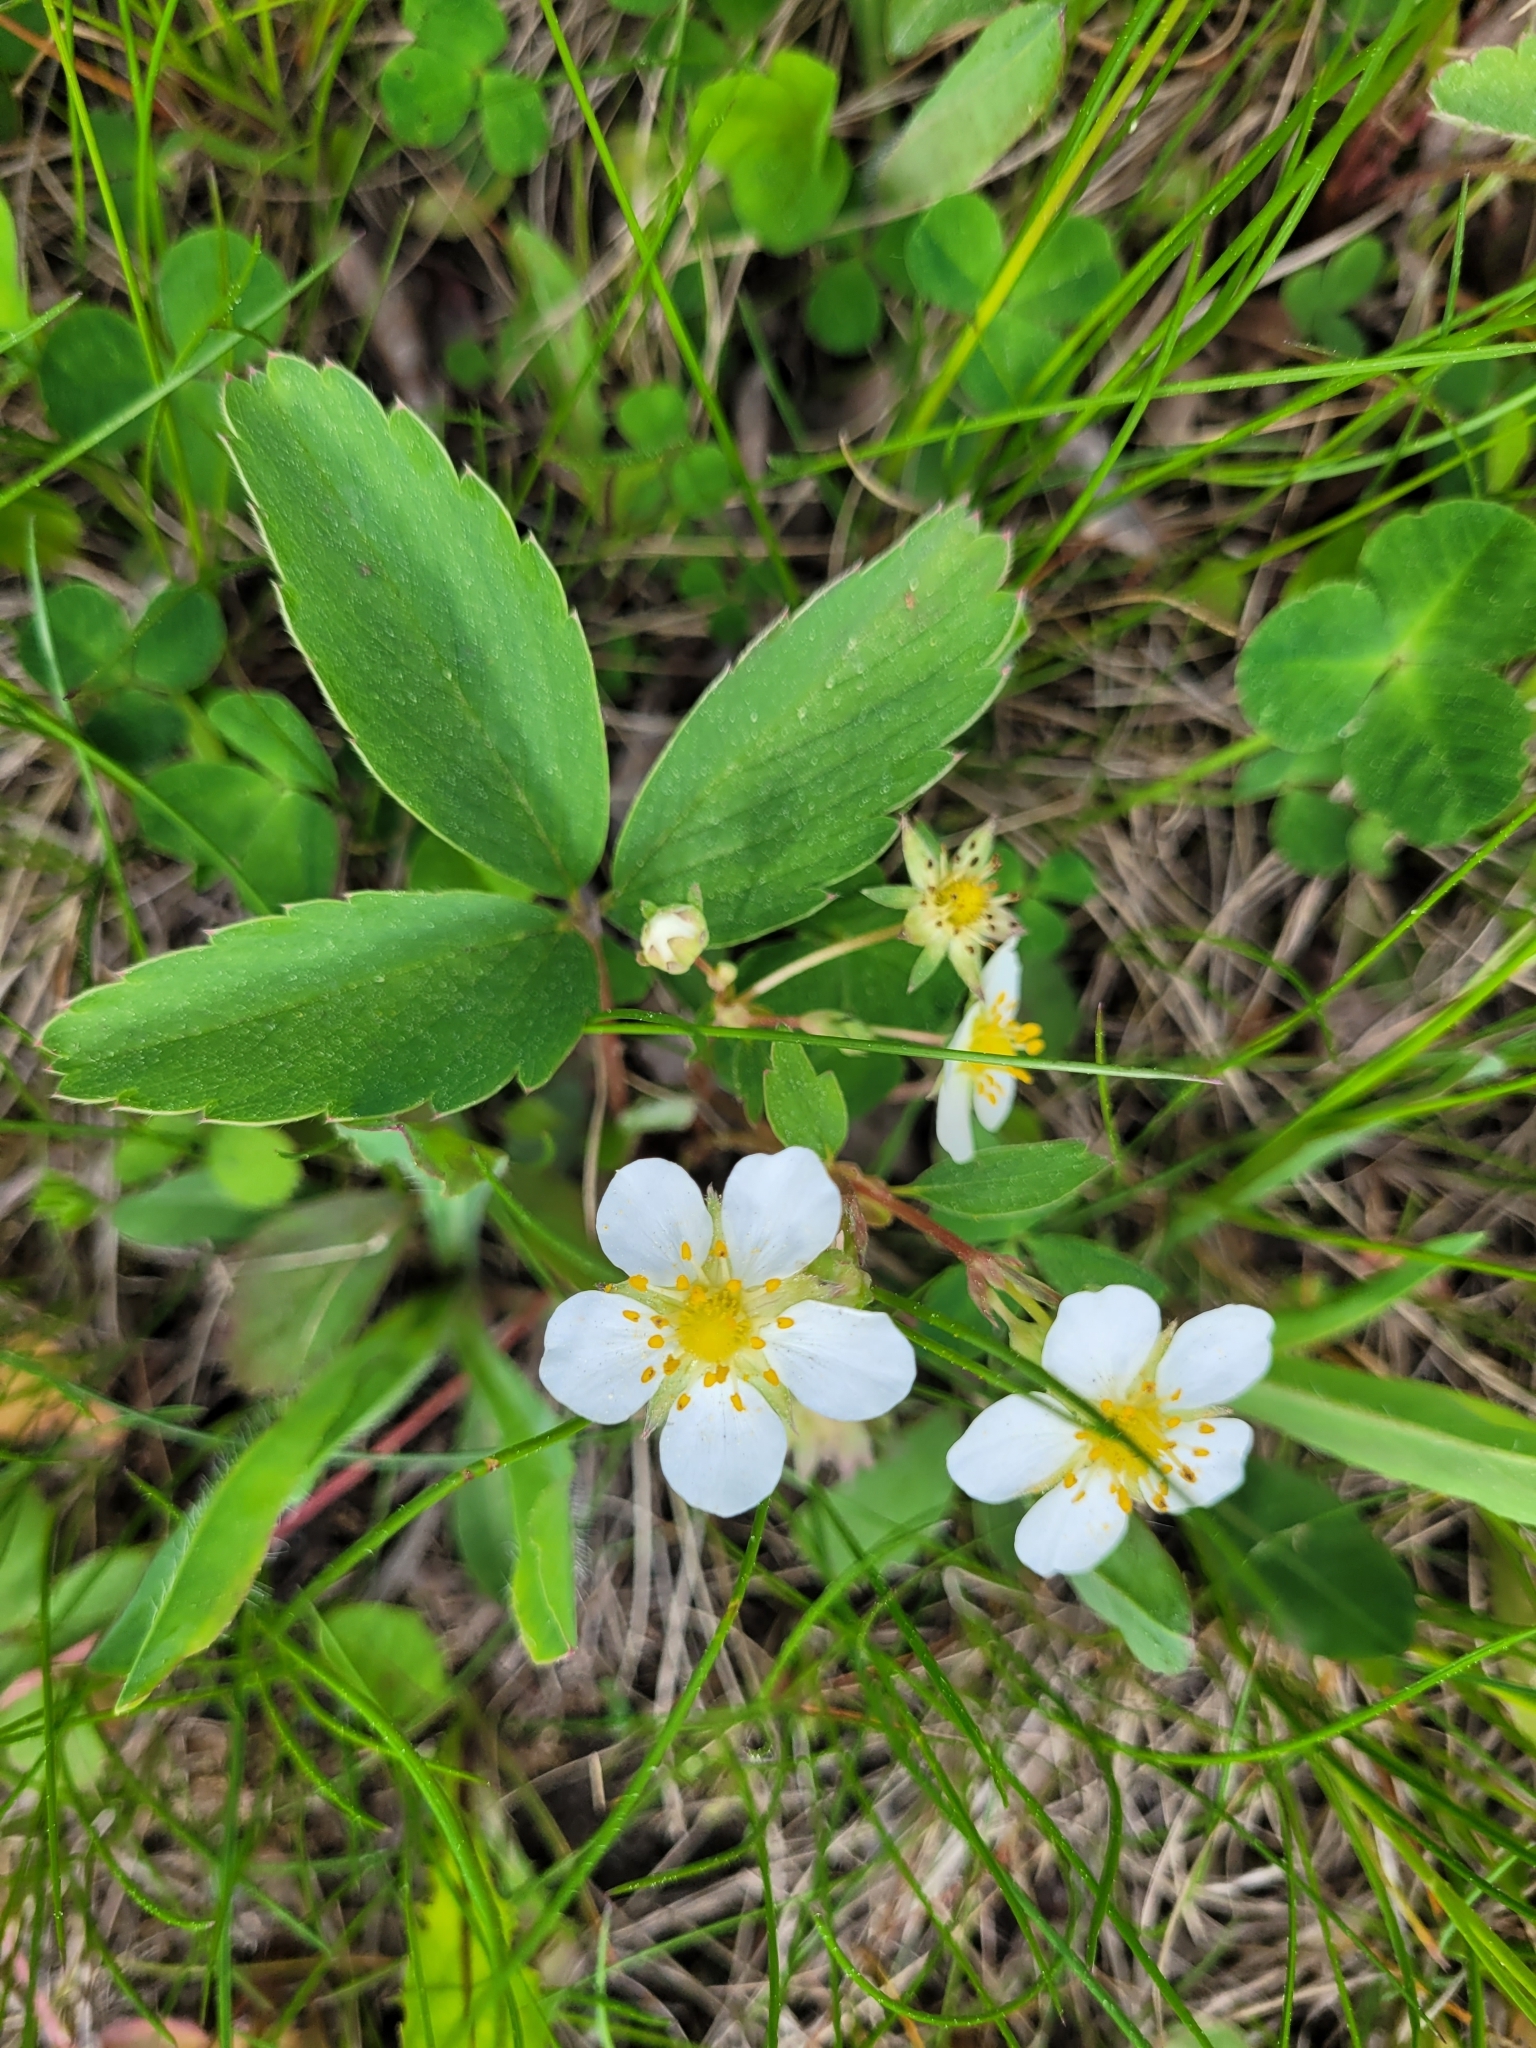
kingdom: Plantae
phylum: Tracheophyta
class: Magnoliopsida
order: Rosales
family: Rosaceae
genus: Fragaria
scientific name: Fragaria virginiana
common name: Thickleaved wild strawberry
